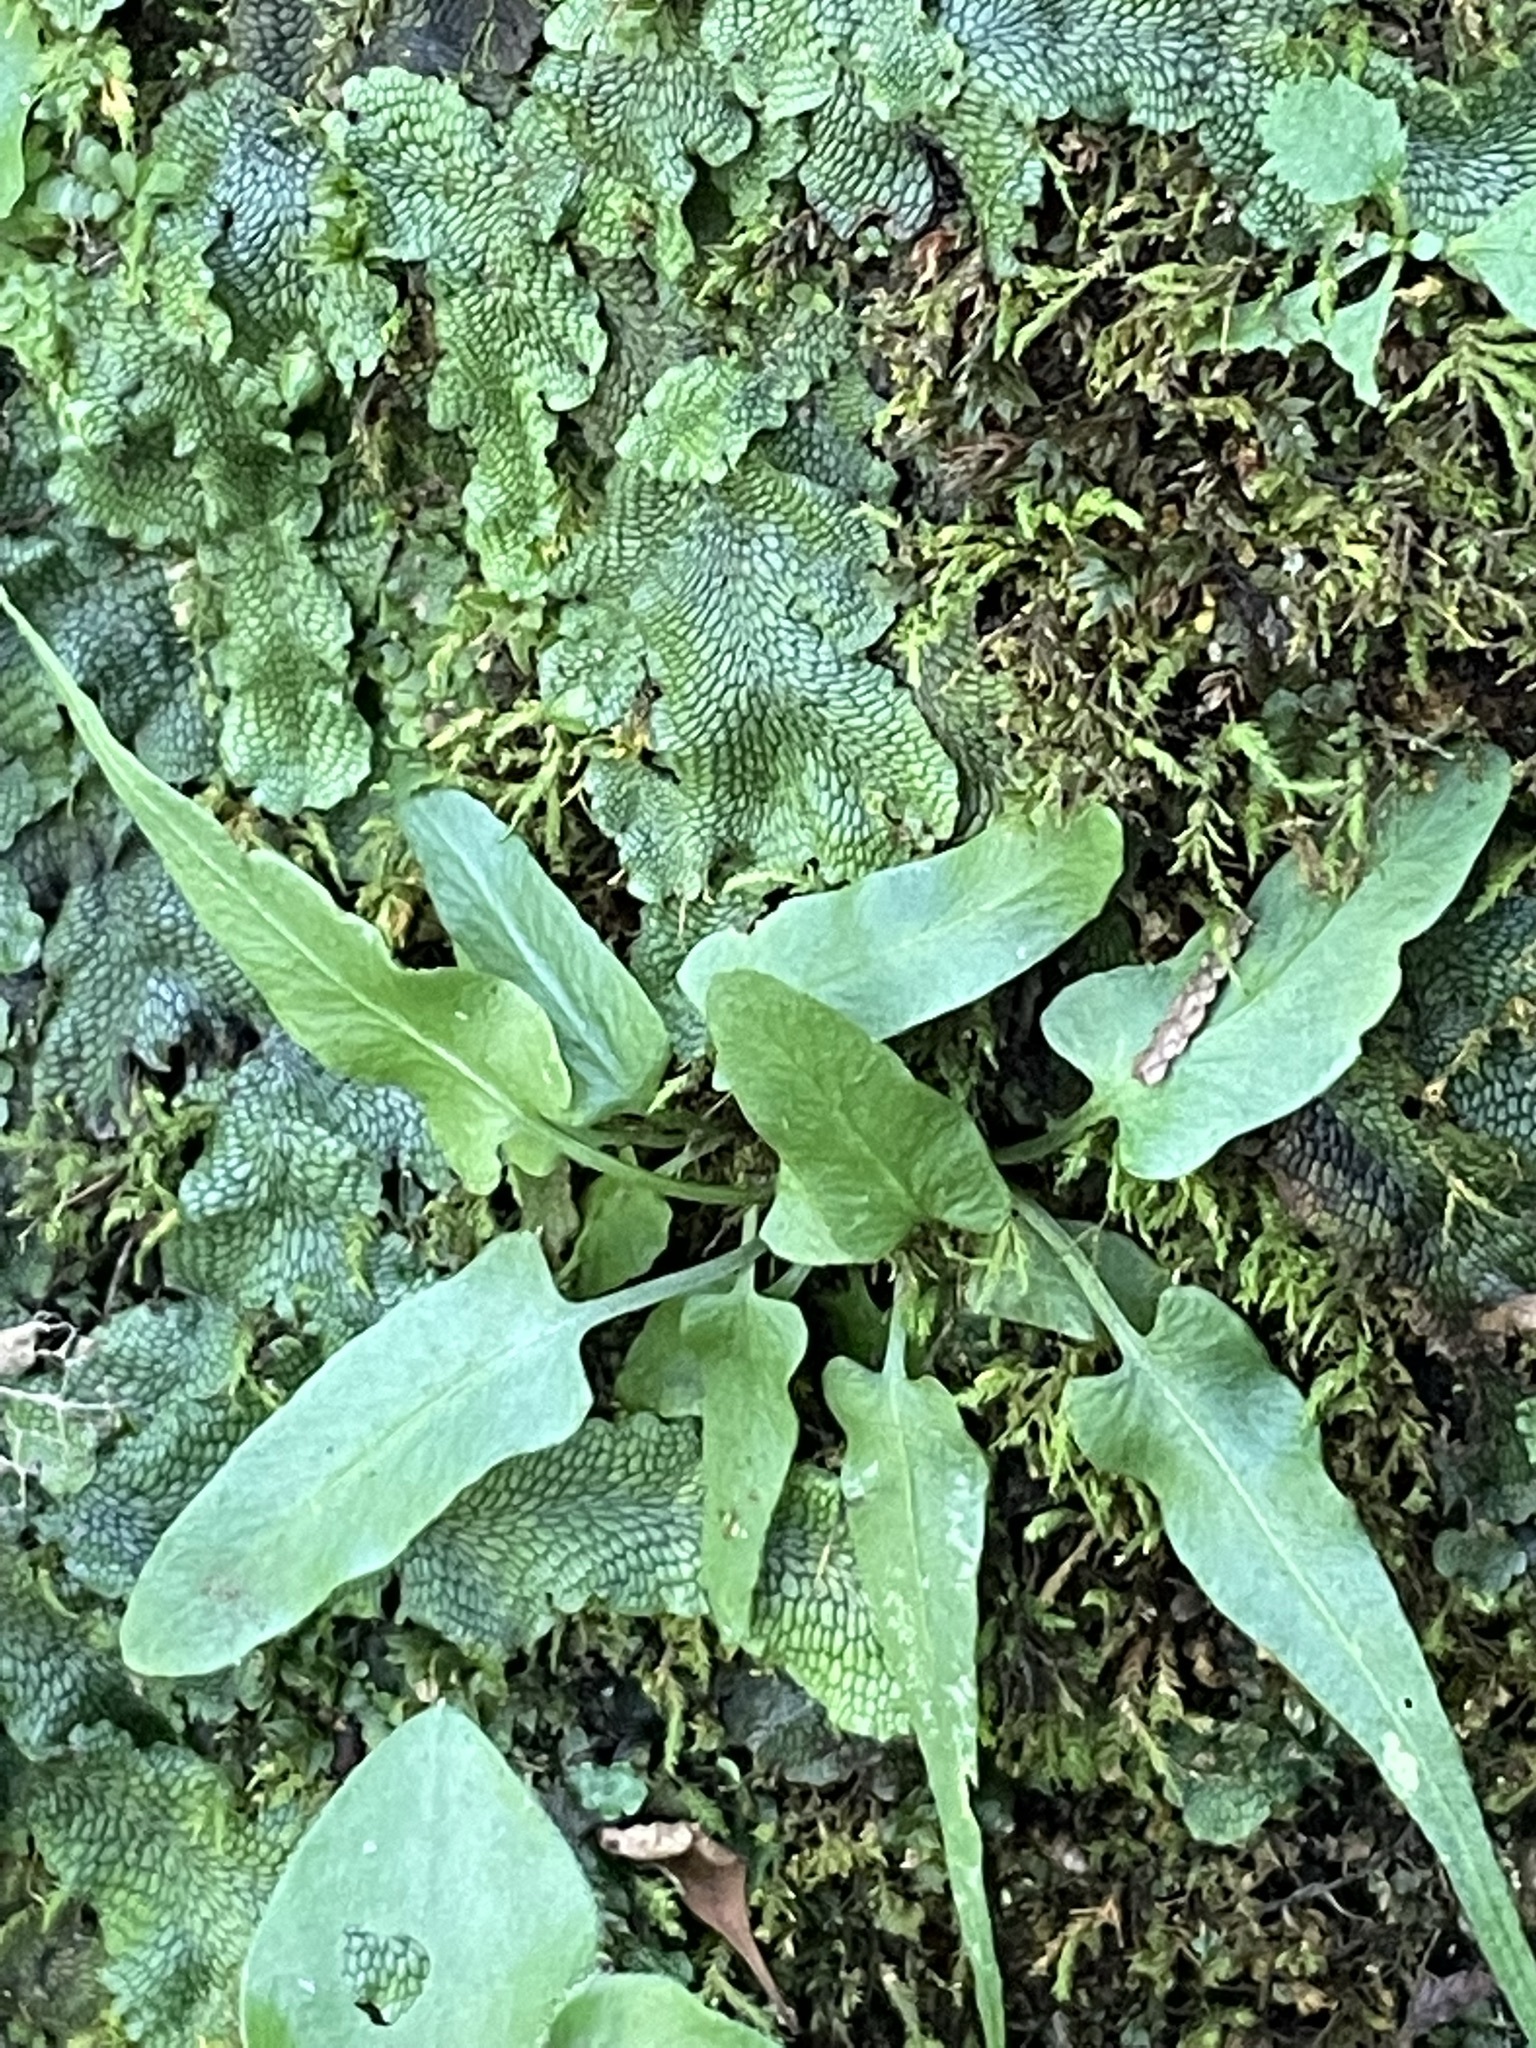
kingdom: Plantae
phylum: Tracheophyta
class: Polypodiopsida
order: Polypodiales
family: Aspleniaceae
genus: Asplenium
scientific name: Asplenium rhizophyllum
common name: Walking fern
